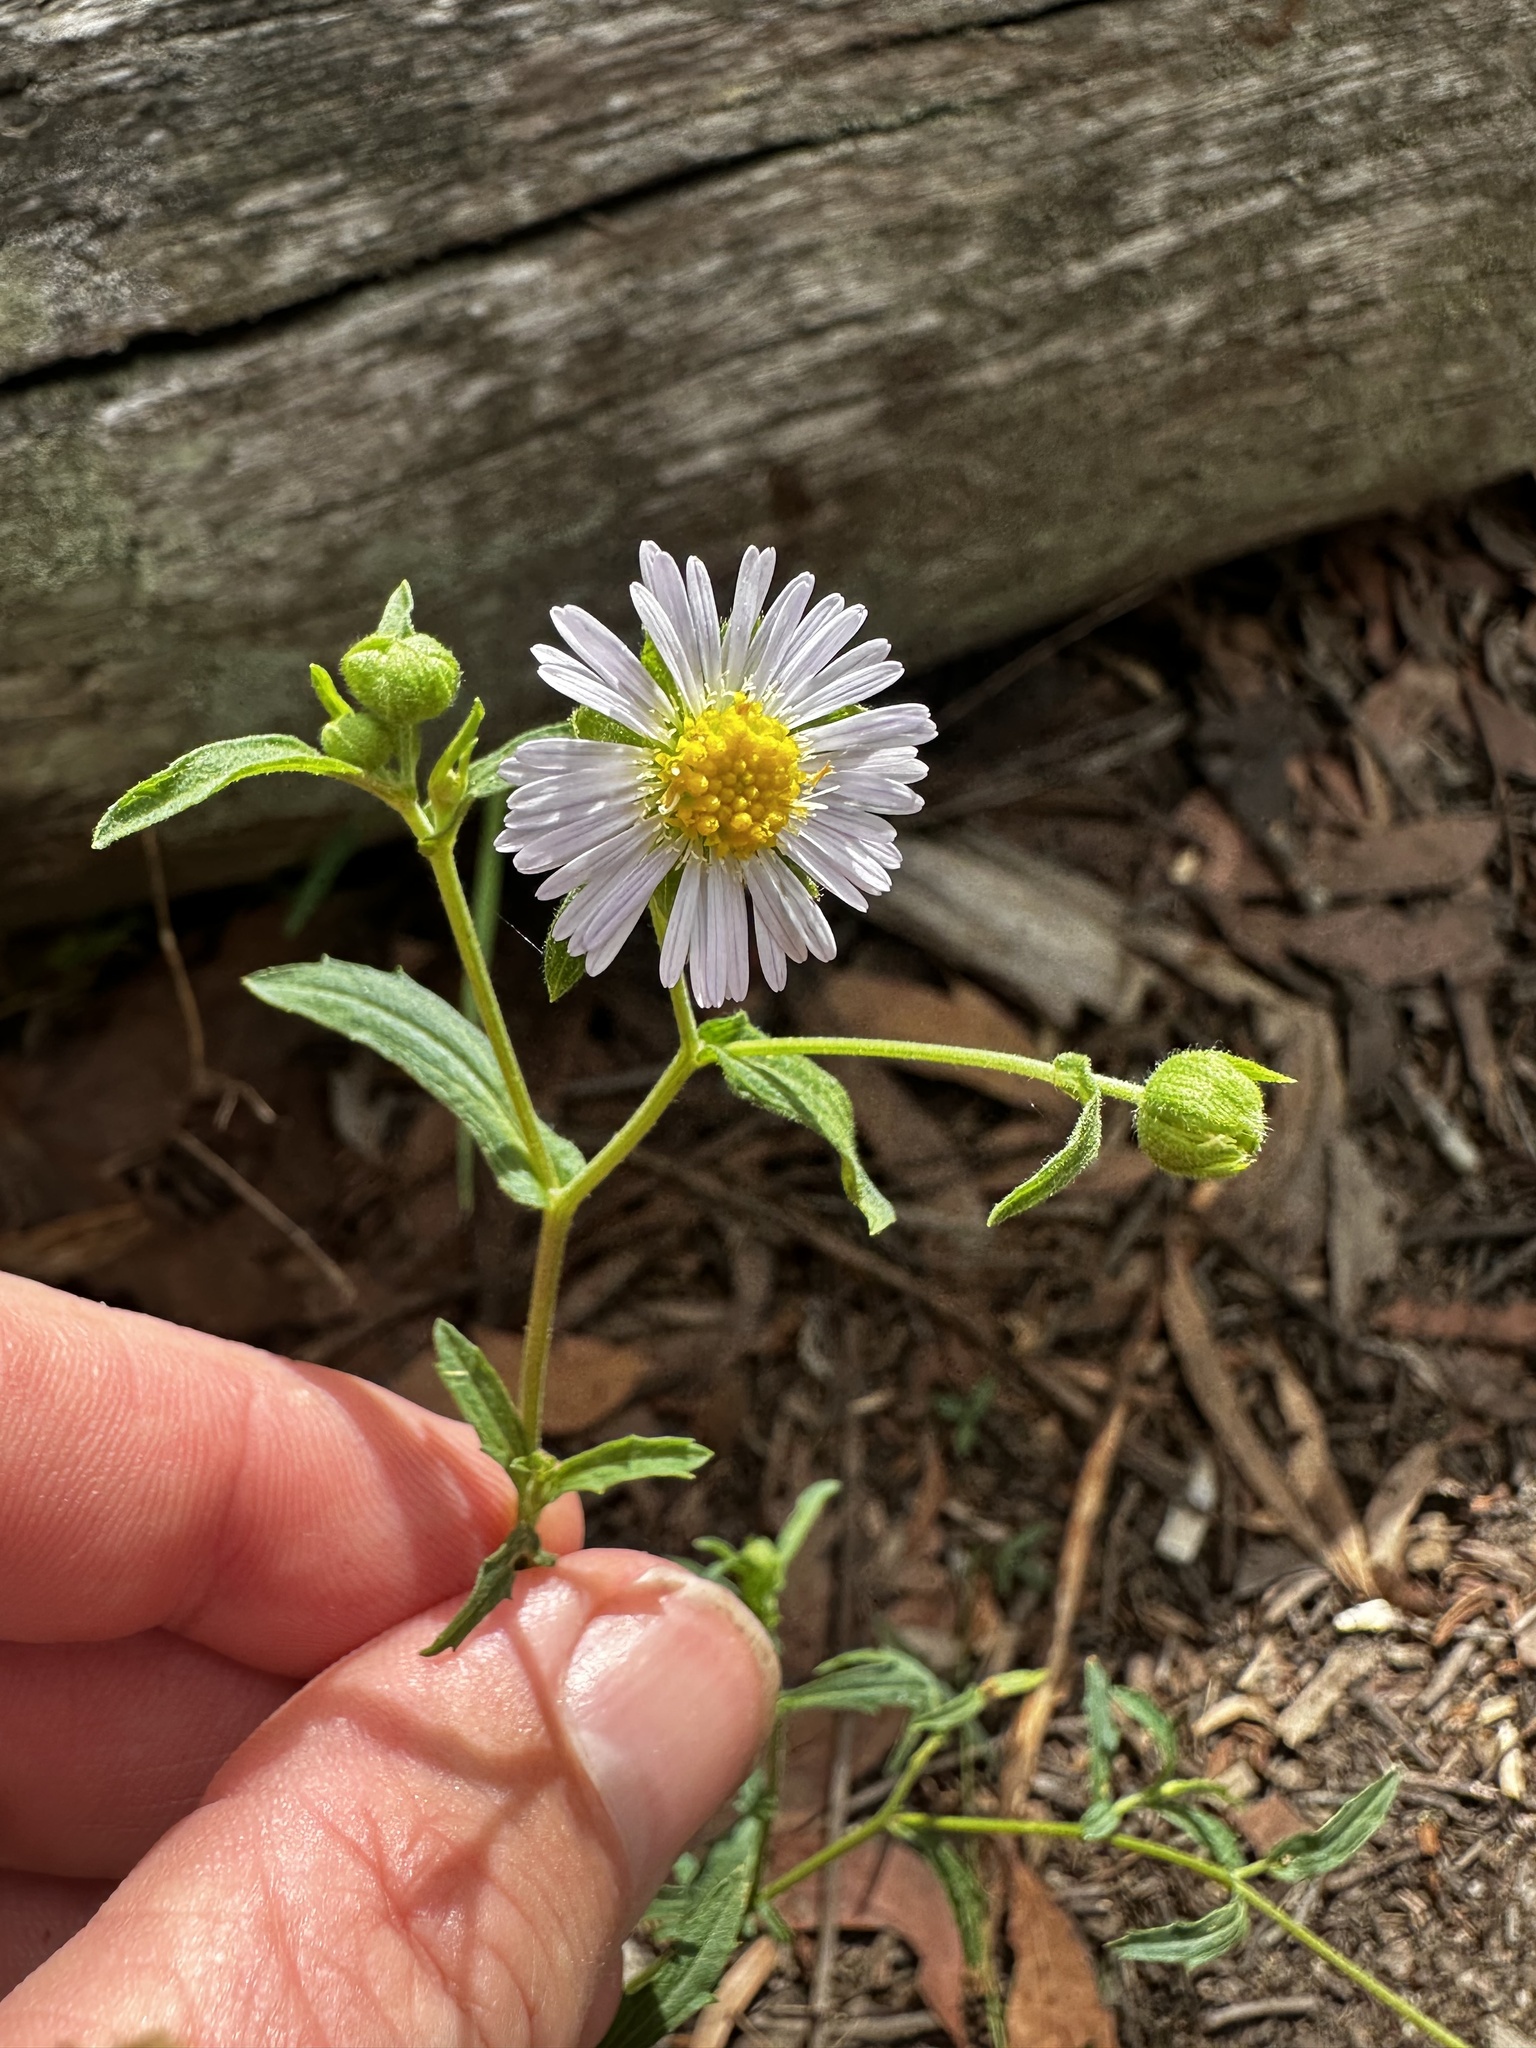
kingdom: Plantae
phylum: Tracheophyta
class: Magnoliopsida
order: Asterales
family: Asteraceae
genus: Calotis
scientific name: Calotis dentex
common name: White bur-daisy
